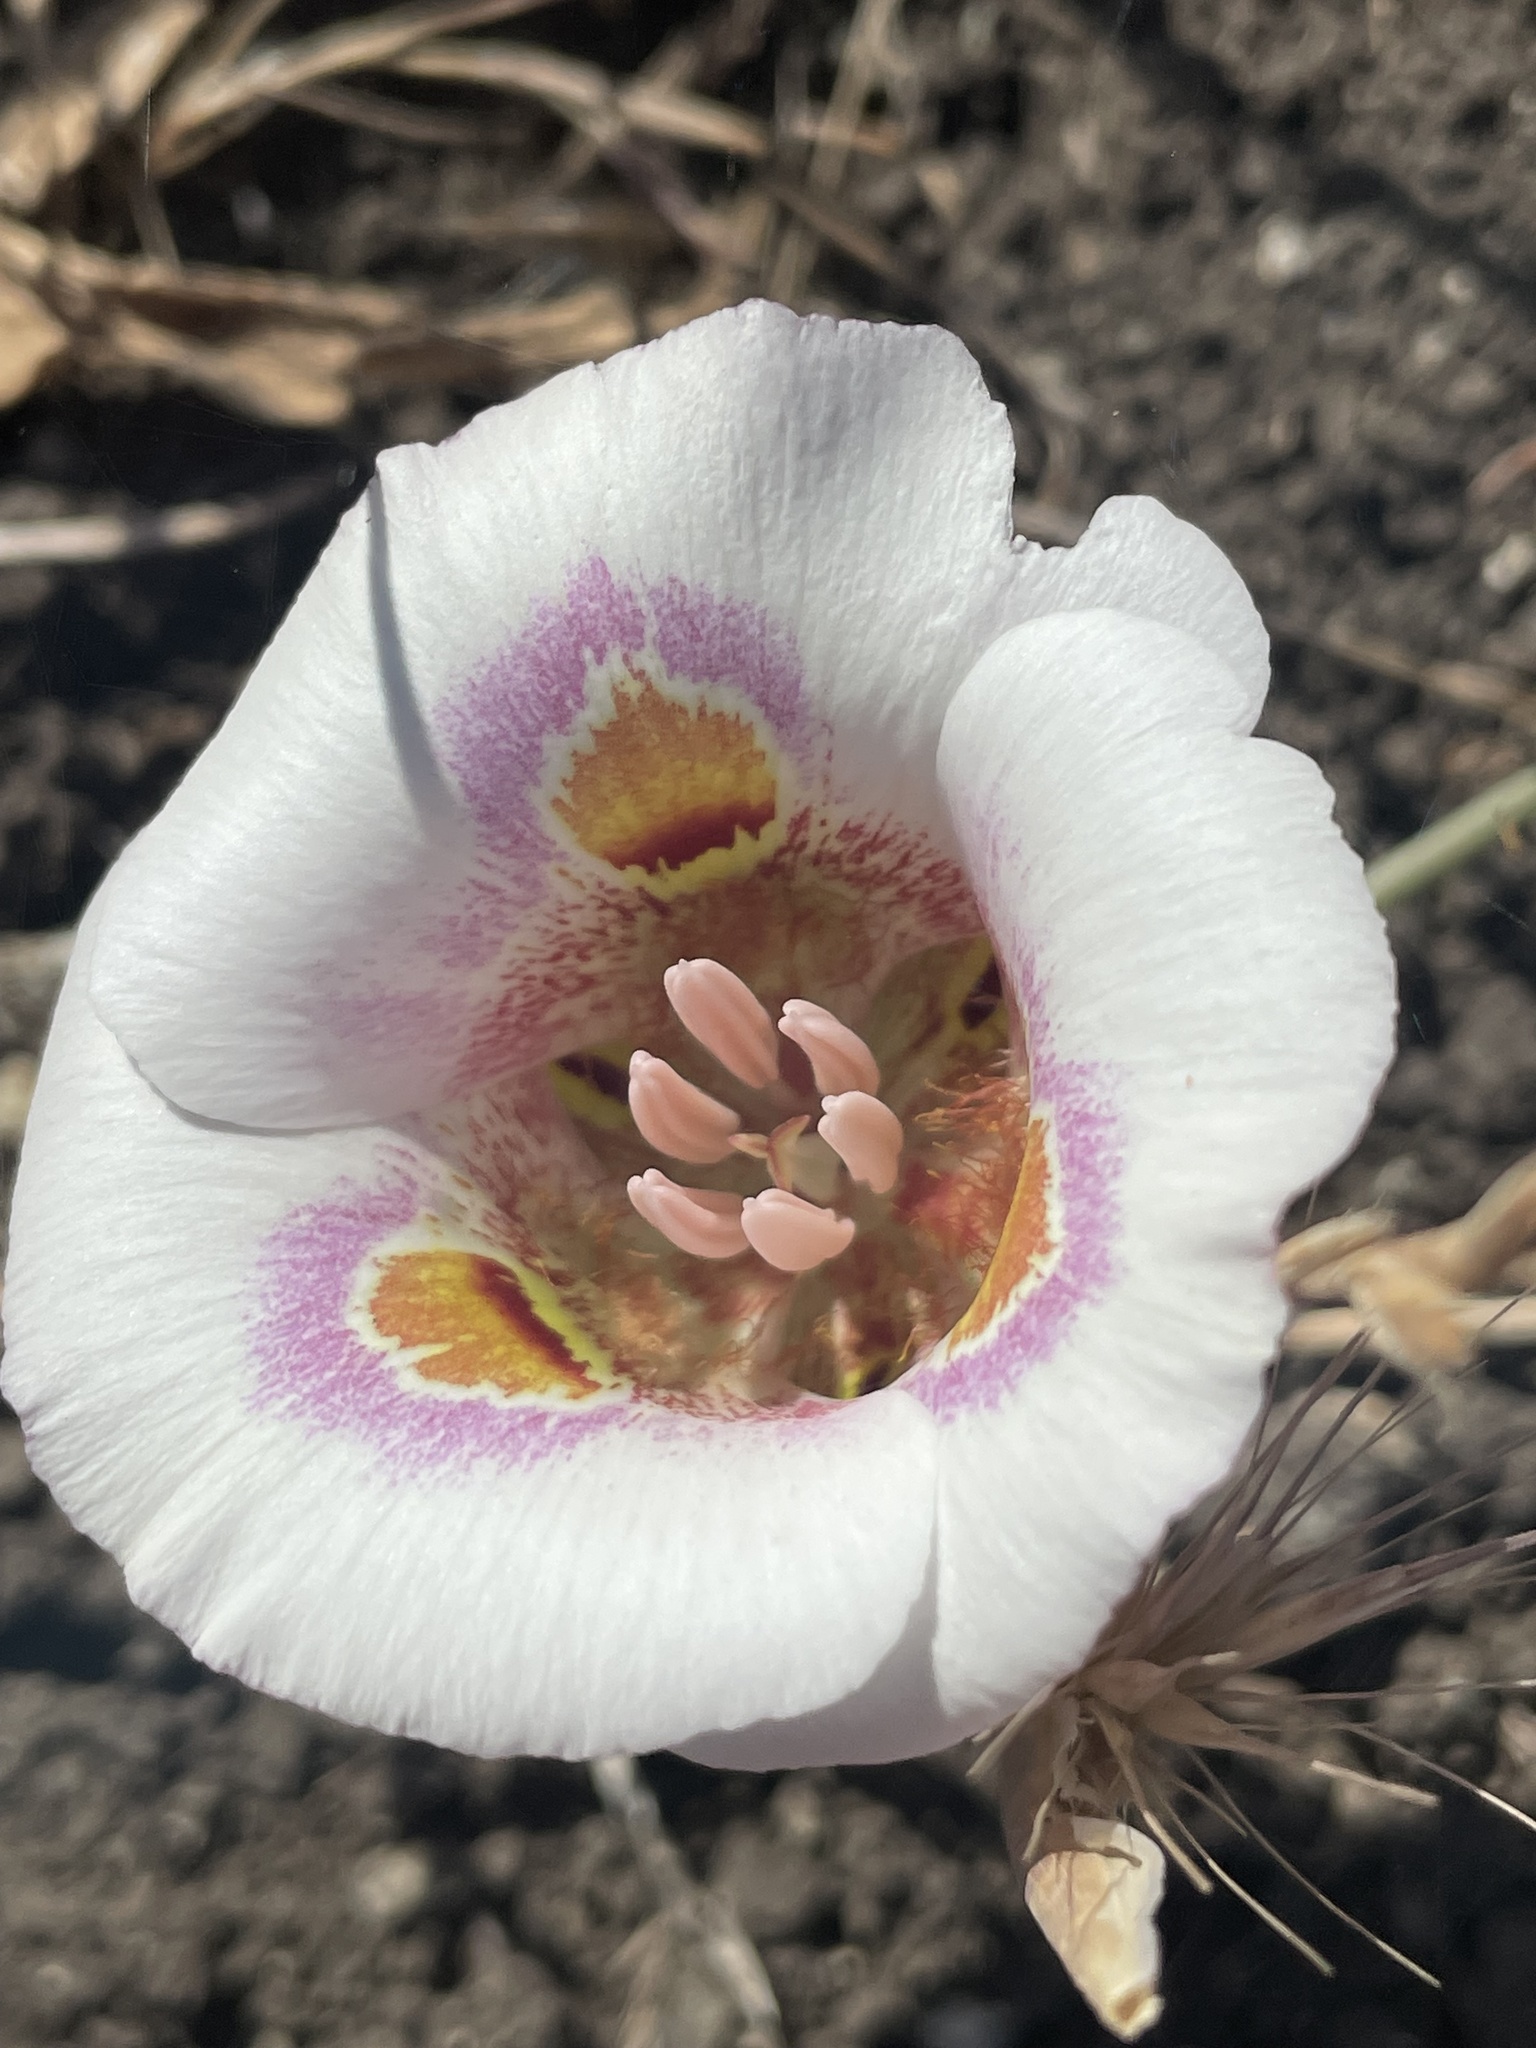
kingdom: Plantae
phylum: Tracheophyta
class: Liliopsida
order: Liliales
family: Liliaceae
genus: Calochortus
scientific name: Calochortus argillosus
